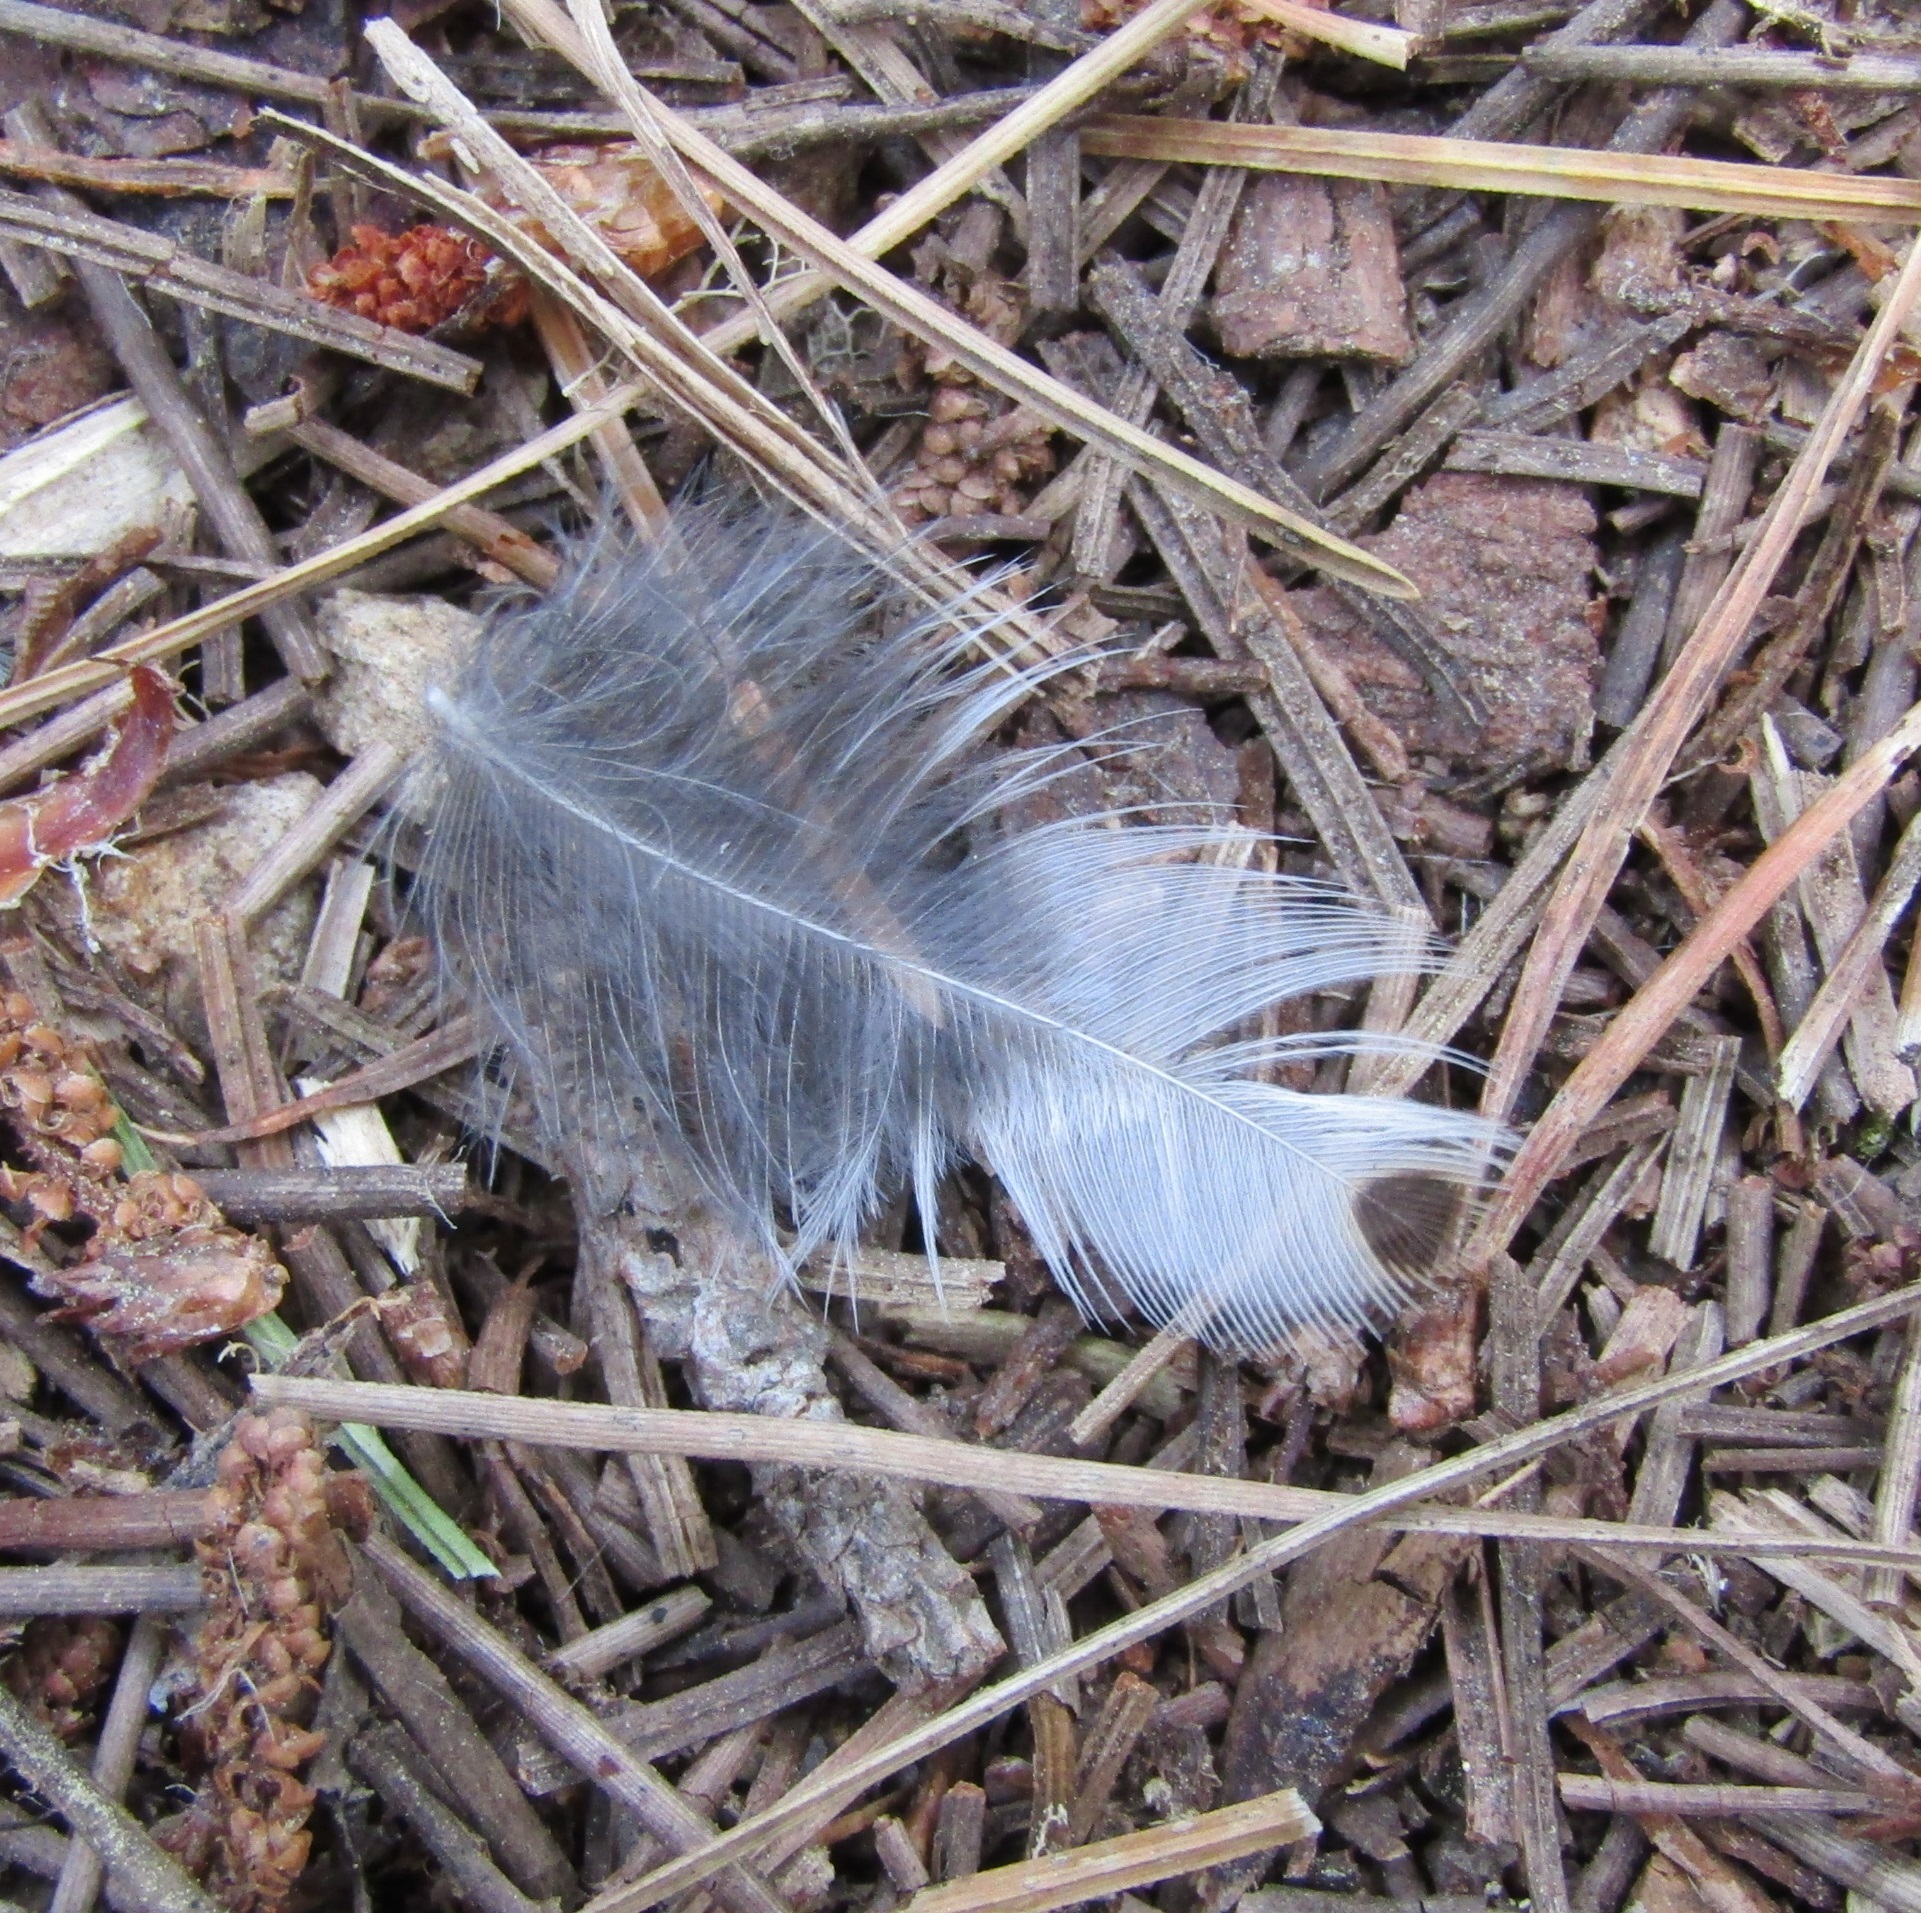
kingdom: Animalia
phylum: Chordata
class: Aves
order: Passeriformes
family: Turdidae
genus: Turdus
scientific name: Turdus philomelos
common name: Song thrush
